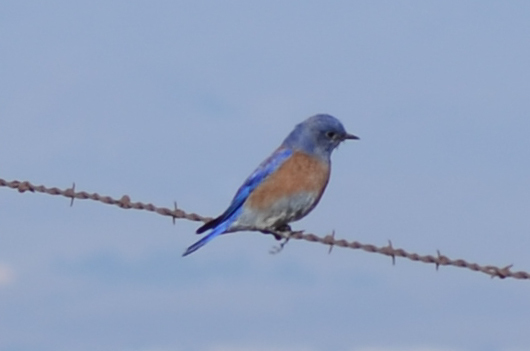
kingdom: Animalia
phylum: Chordata
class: Aves
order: Passeriformes
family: Turdidae
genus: Sialia
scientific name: Sialia mexicana
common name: Western bluebird
